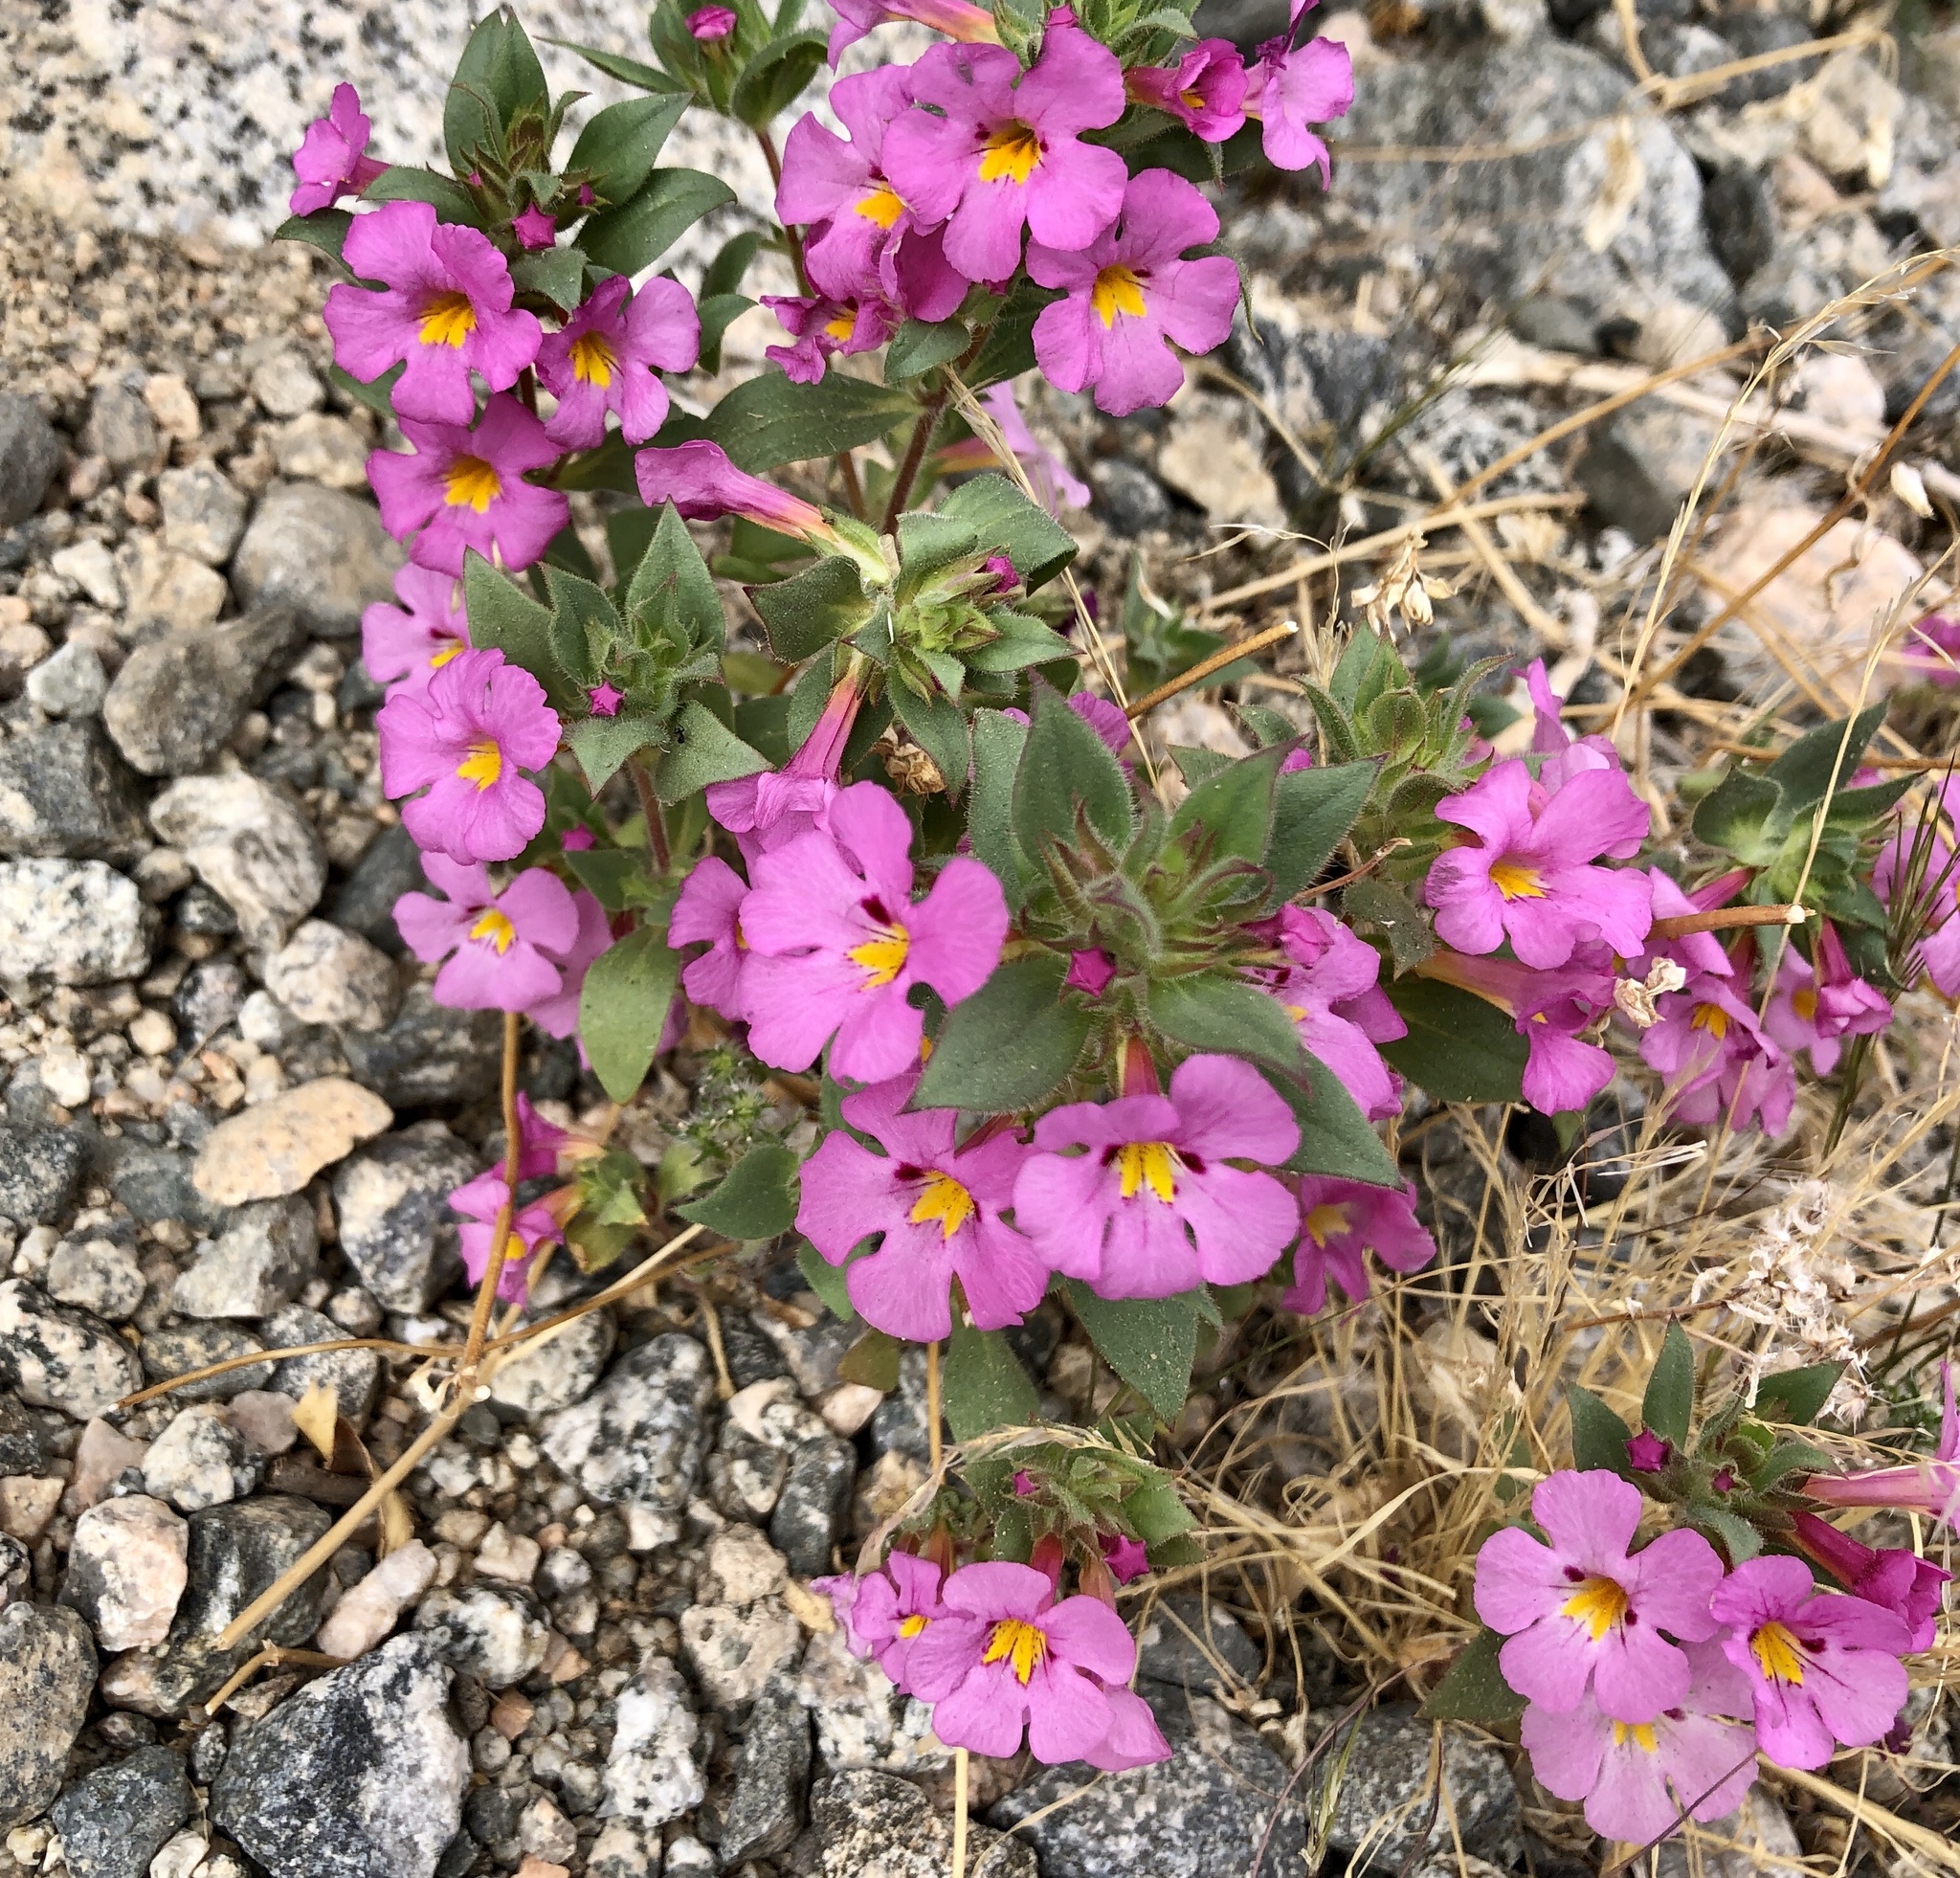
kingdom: Plantae
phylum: Tracheophyta
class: Magnoliopsida
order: Lamiales
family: Phrymaceae
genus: Diplacus
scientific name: Diplacus bigelovii
